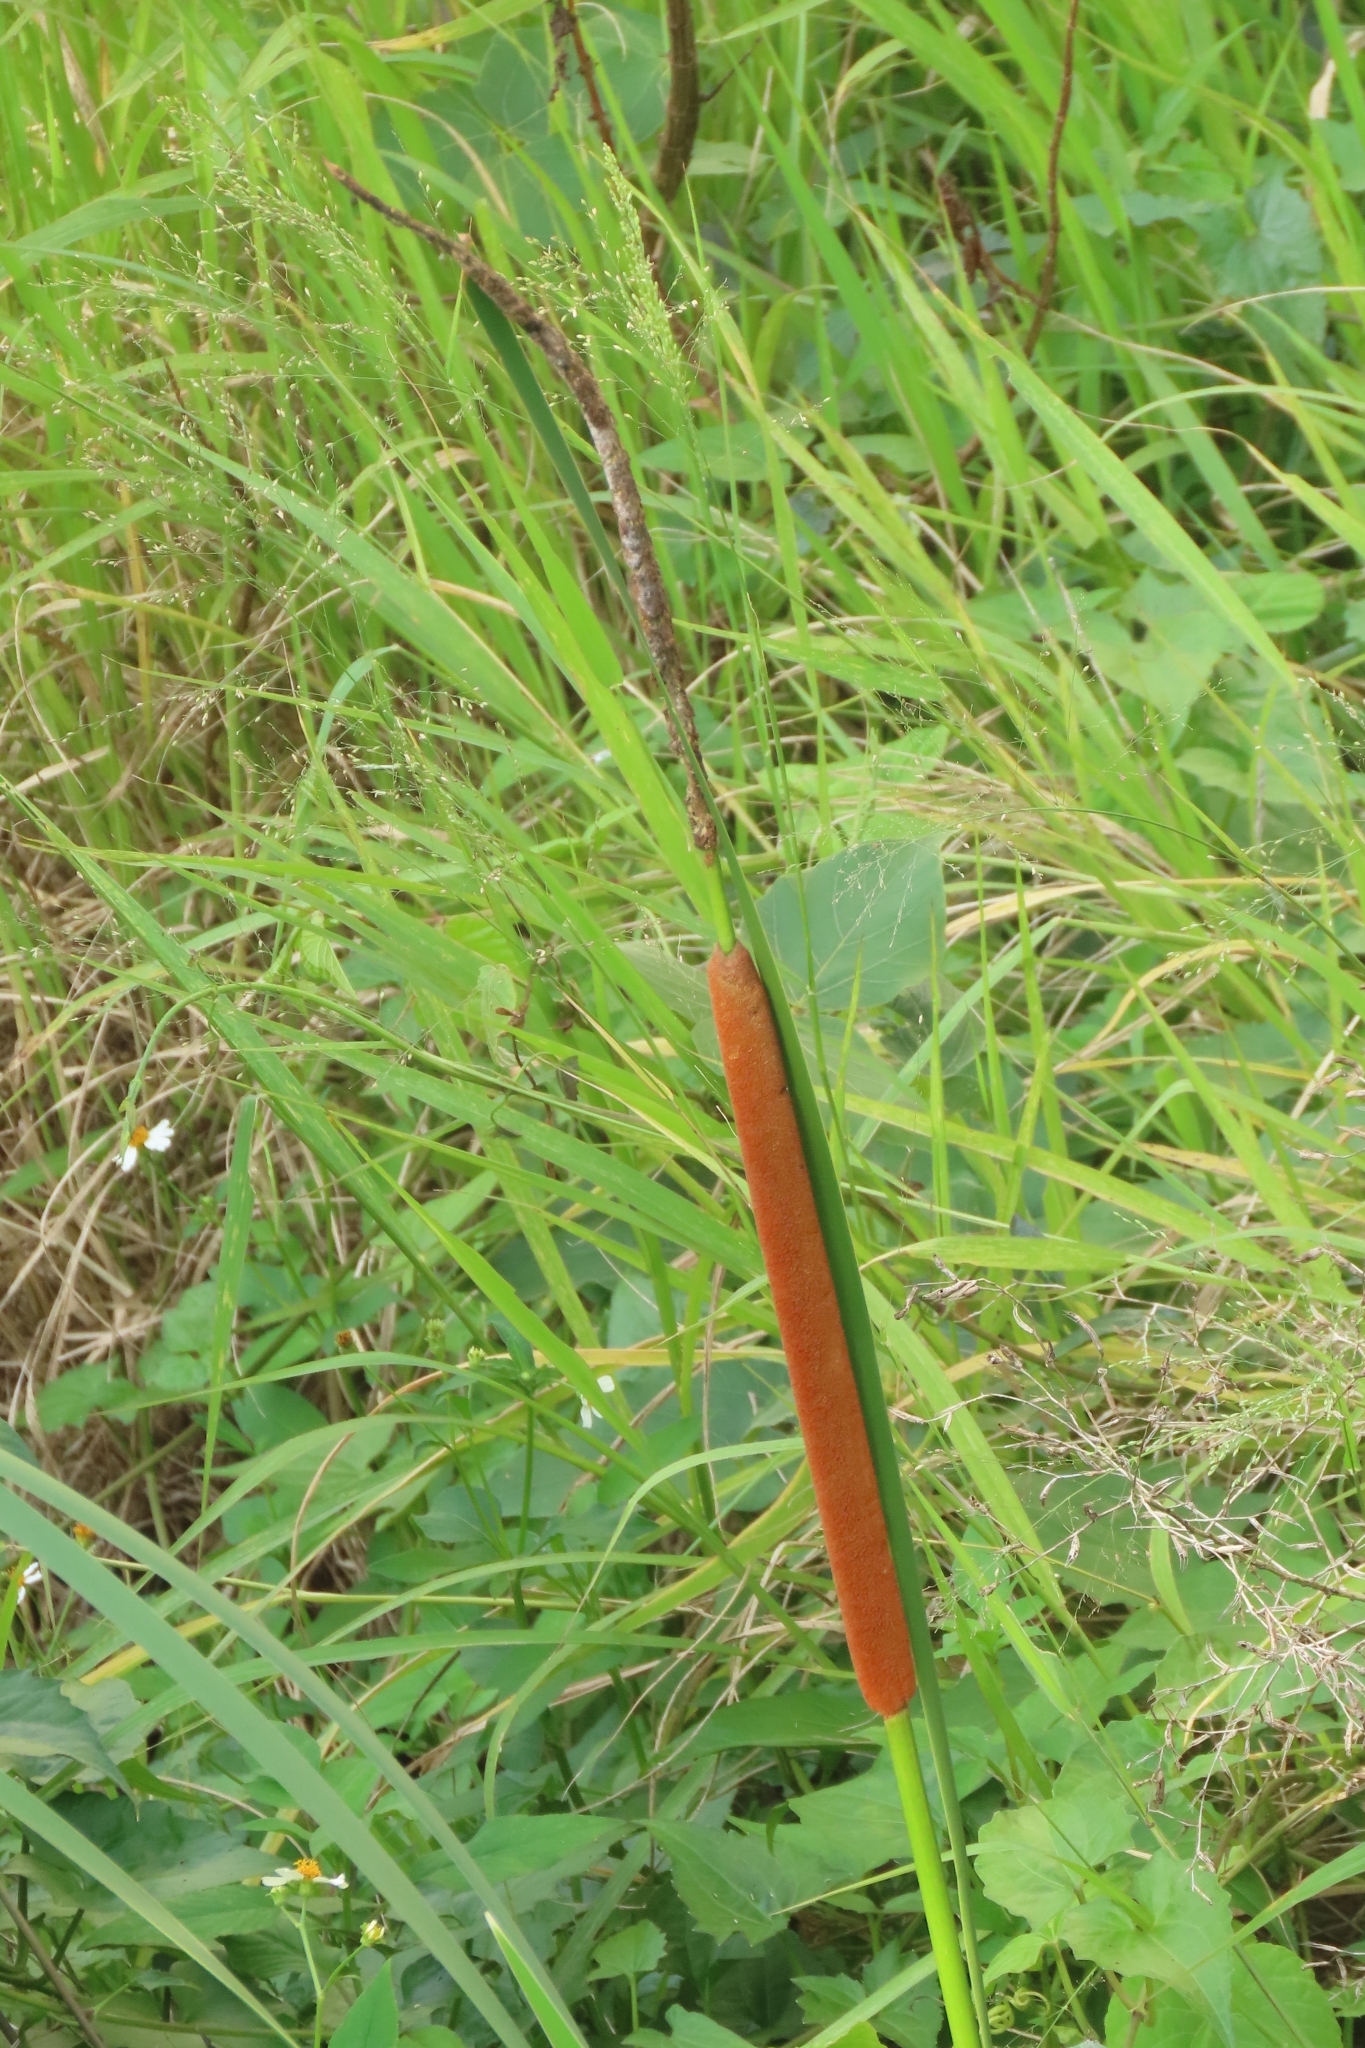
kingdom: Plantae
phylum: Tracheophyta
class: Liliopsida
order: Poales
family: Typhaceae
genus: Typha
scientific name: Typha angustifolia
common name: Lesser bulrush
